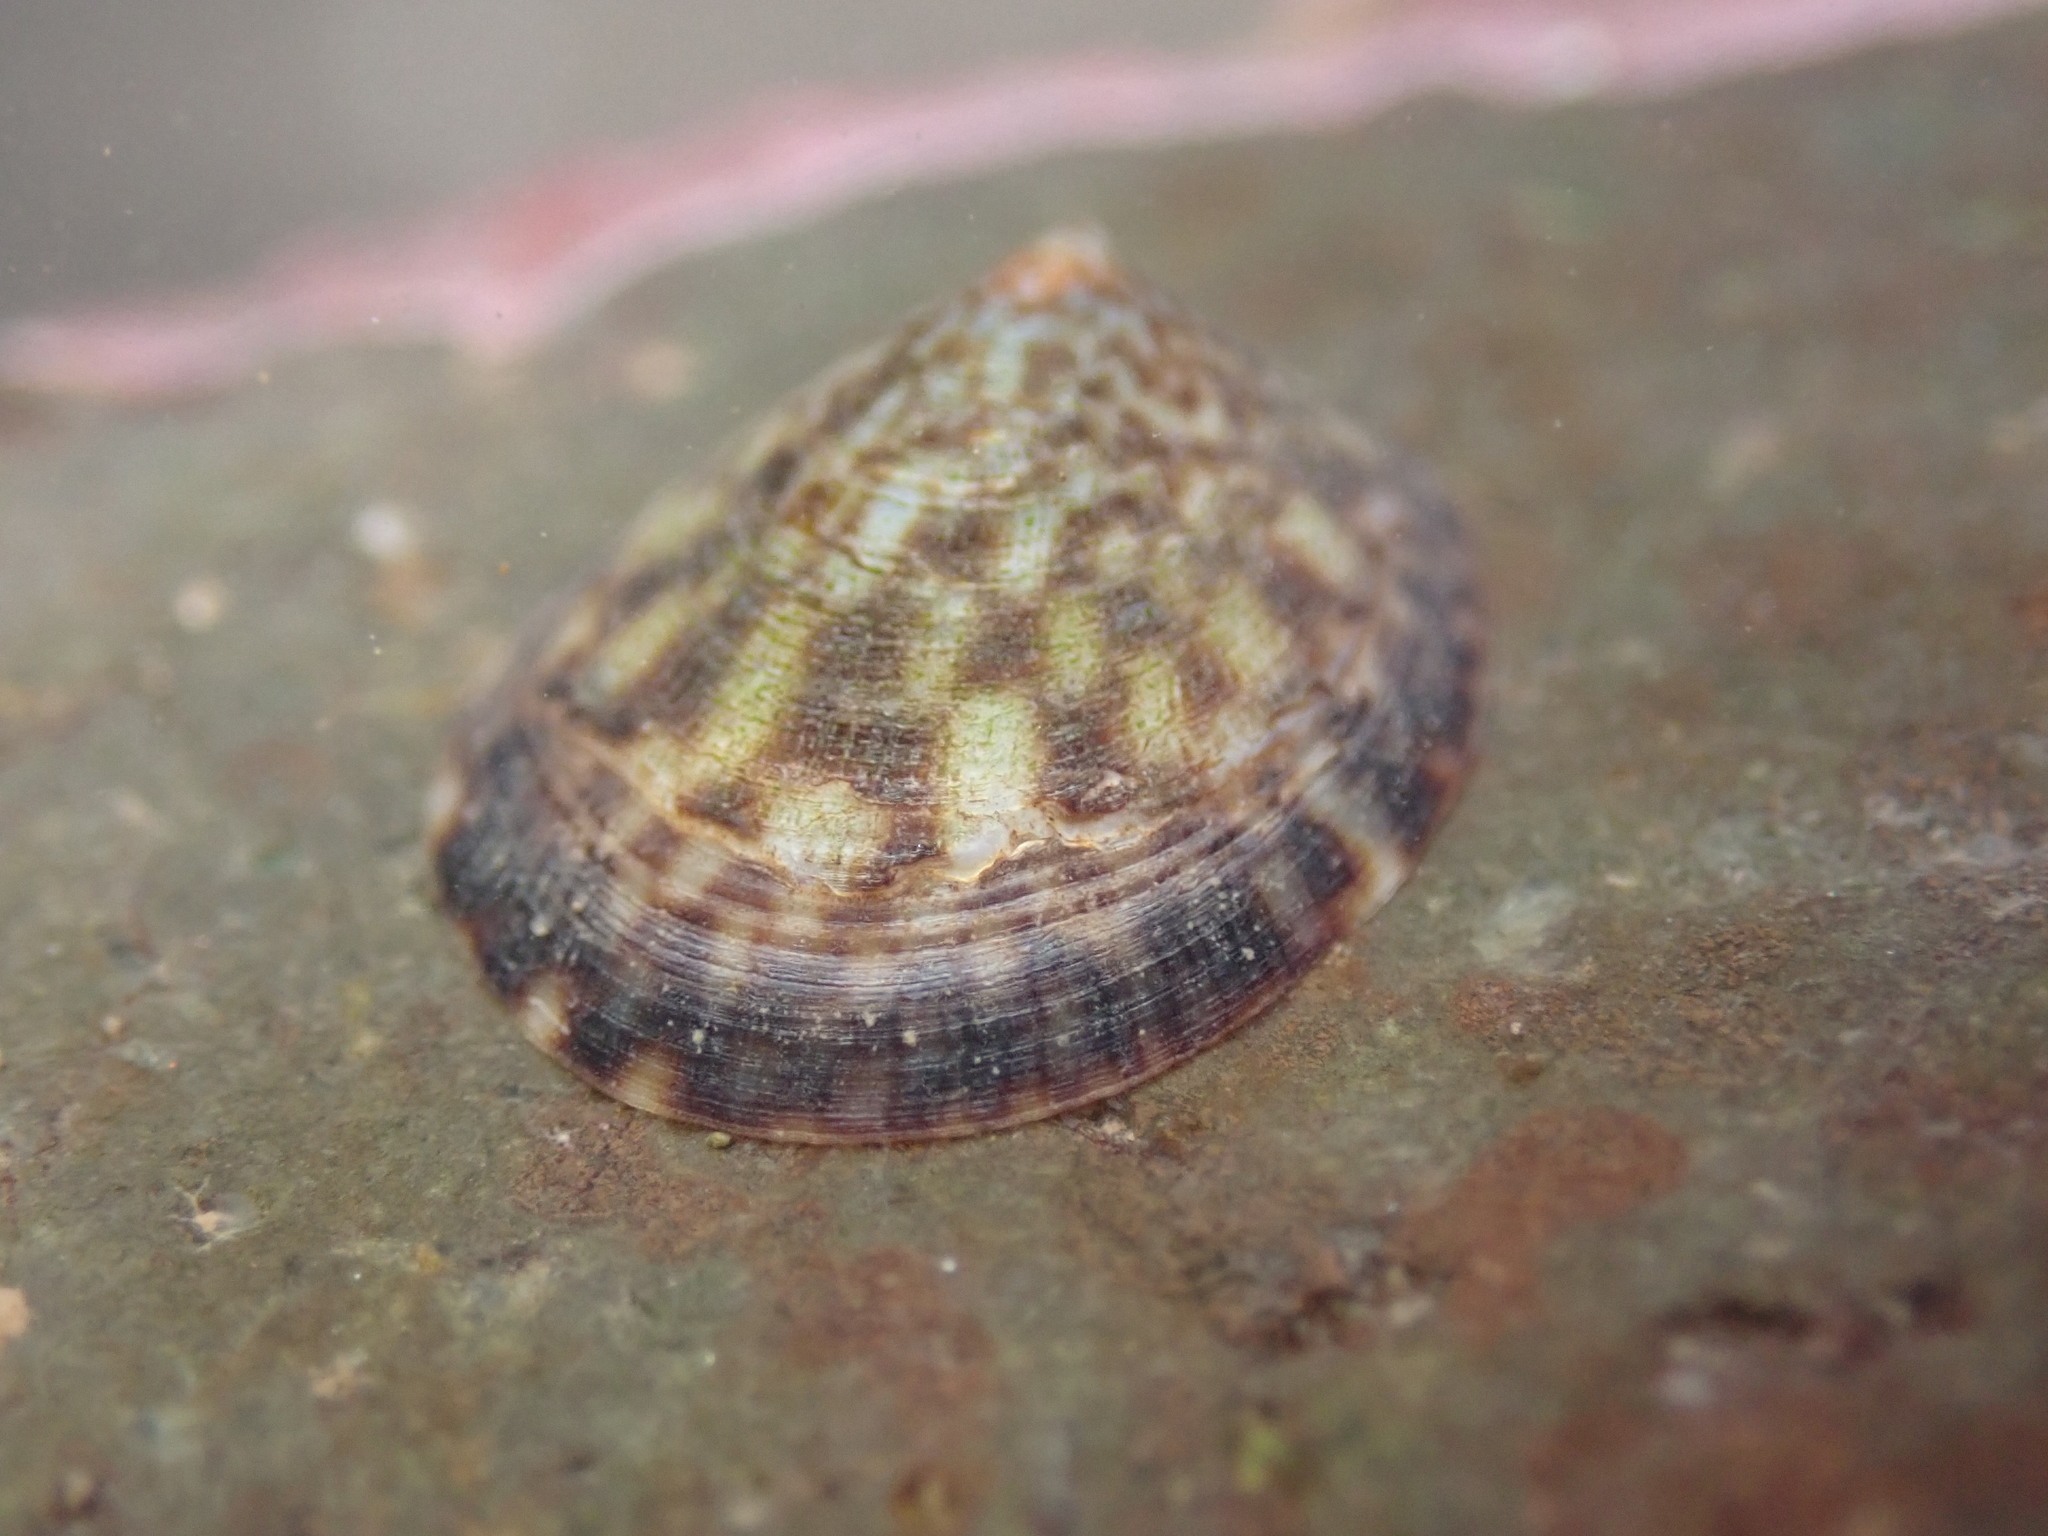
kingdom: Animalia
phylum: Mollusca
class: Gastropoda
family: Lottiidae
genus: Testudinalia
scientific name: Testudinalia testudinalis
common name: Common tortoiseshell limpet
